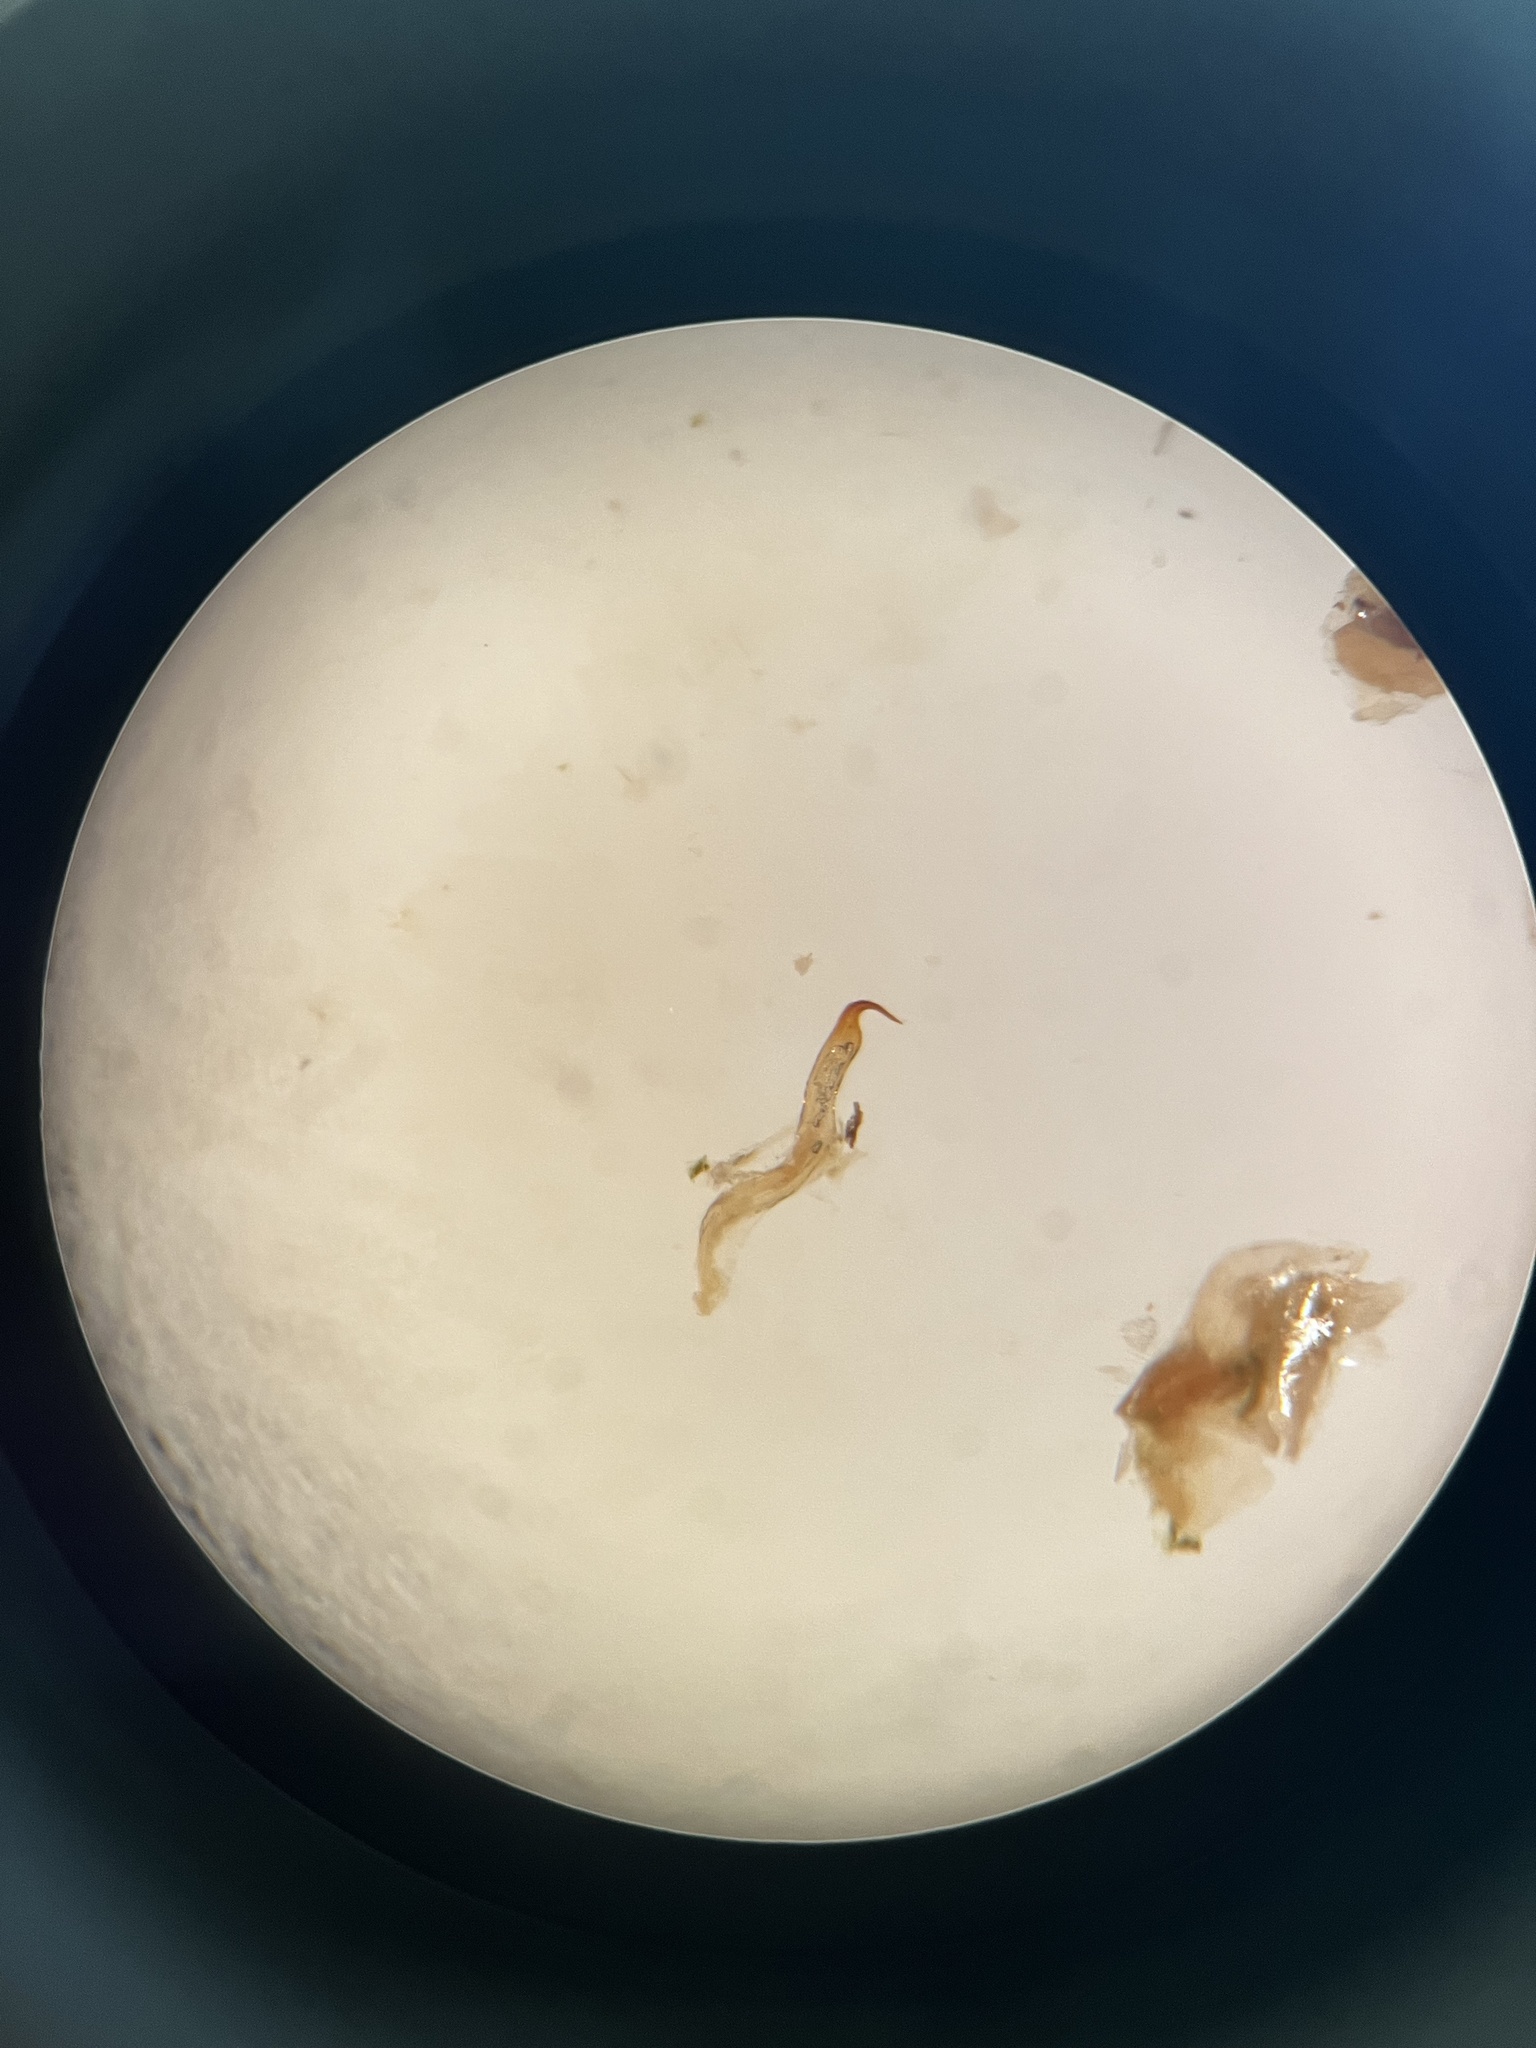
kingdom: Animalia
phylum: Arthropoda
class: Insecta
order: Hemiptera
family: Cicadellidae
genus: Forcipata
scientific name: Forcipata citrinella
